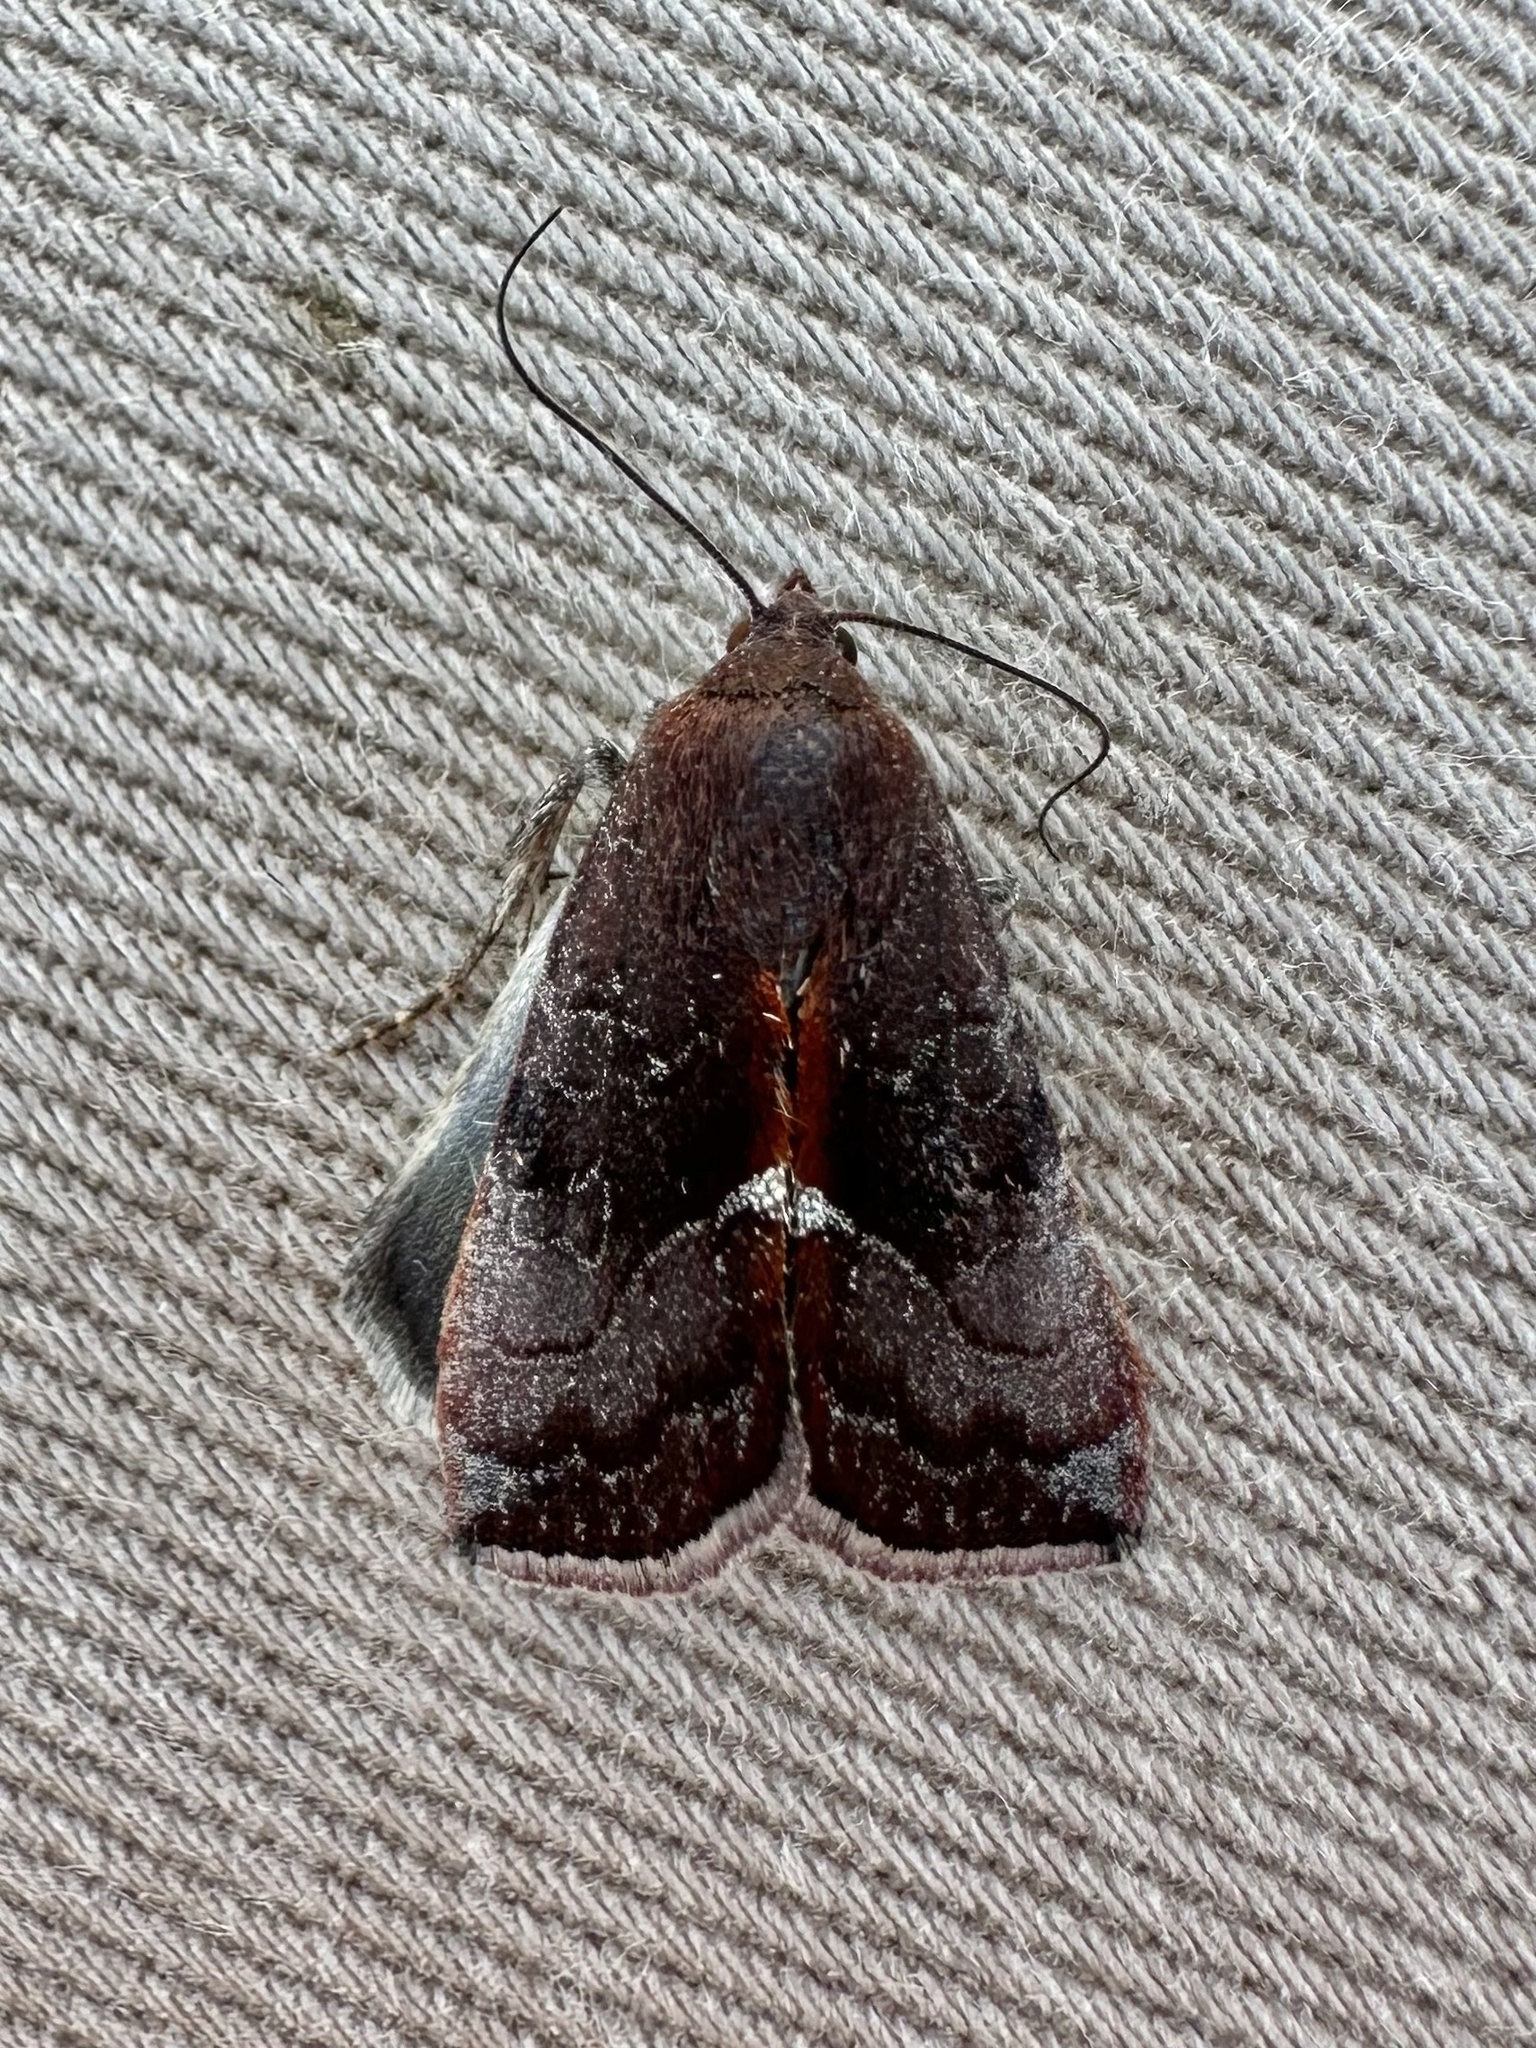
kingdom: Animalia
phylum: Arthropoda
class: Insecta
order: Lepidoptera
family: Noctuidae
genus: Galgula
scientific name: Galgula partita
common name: Wedgeling
